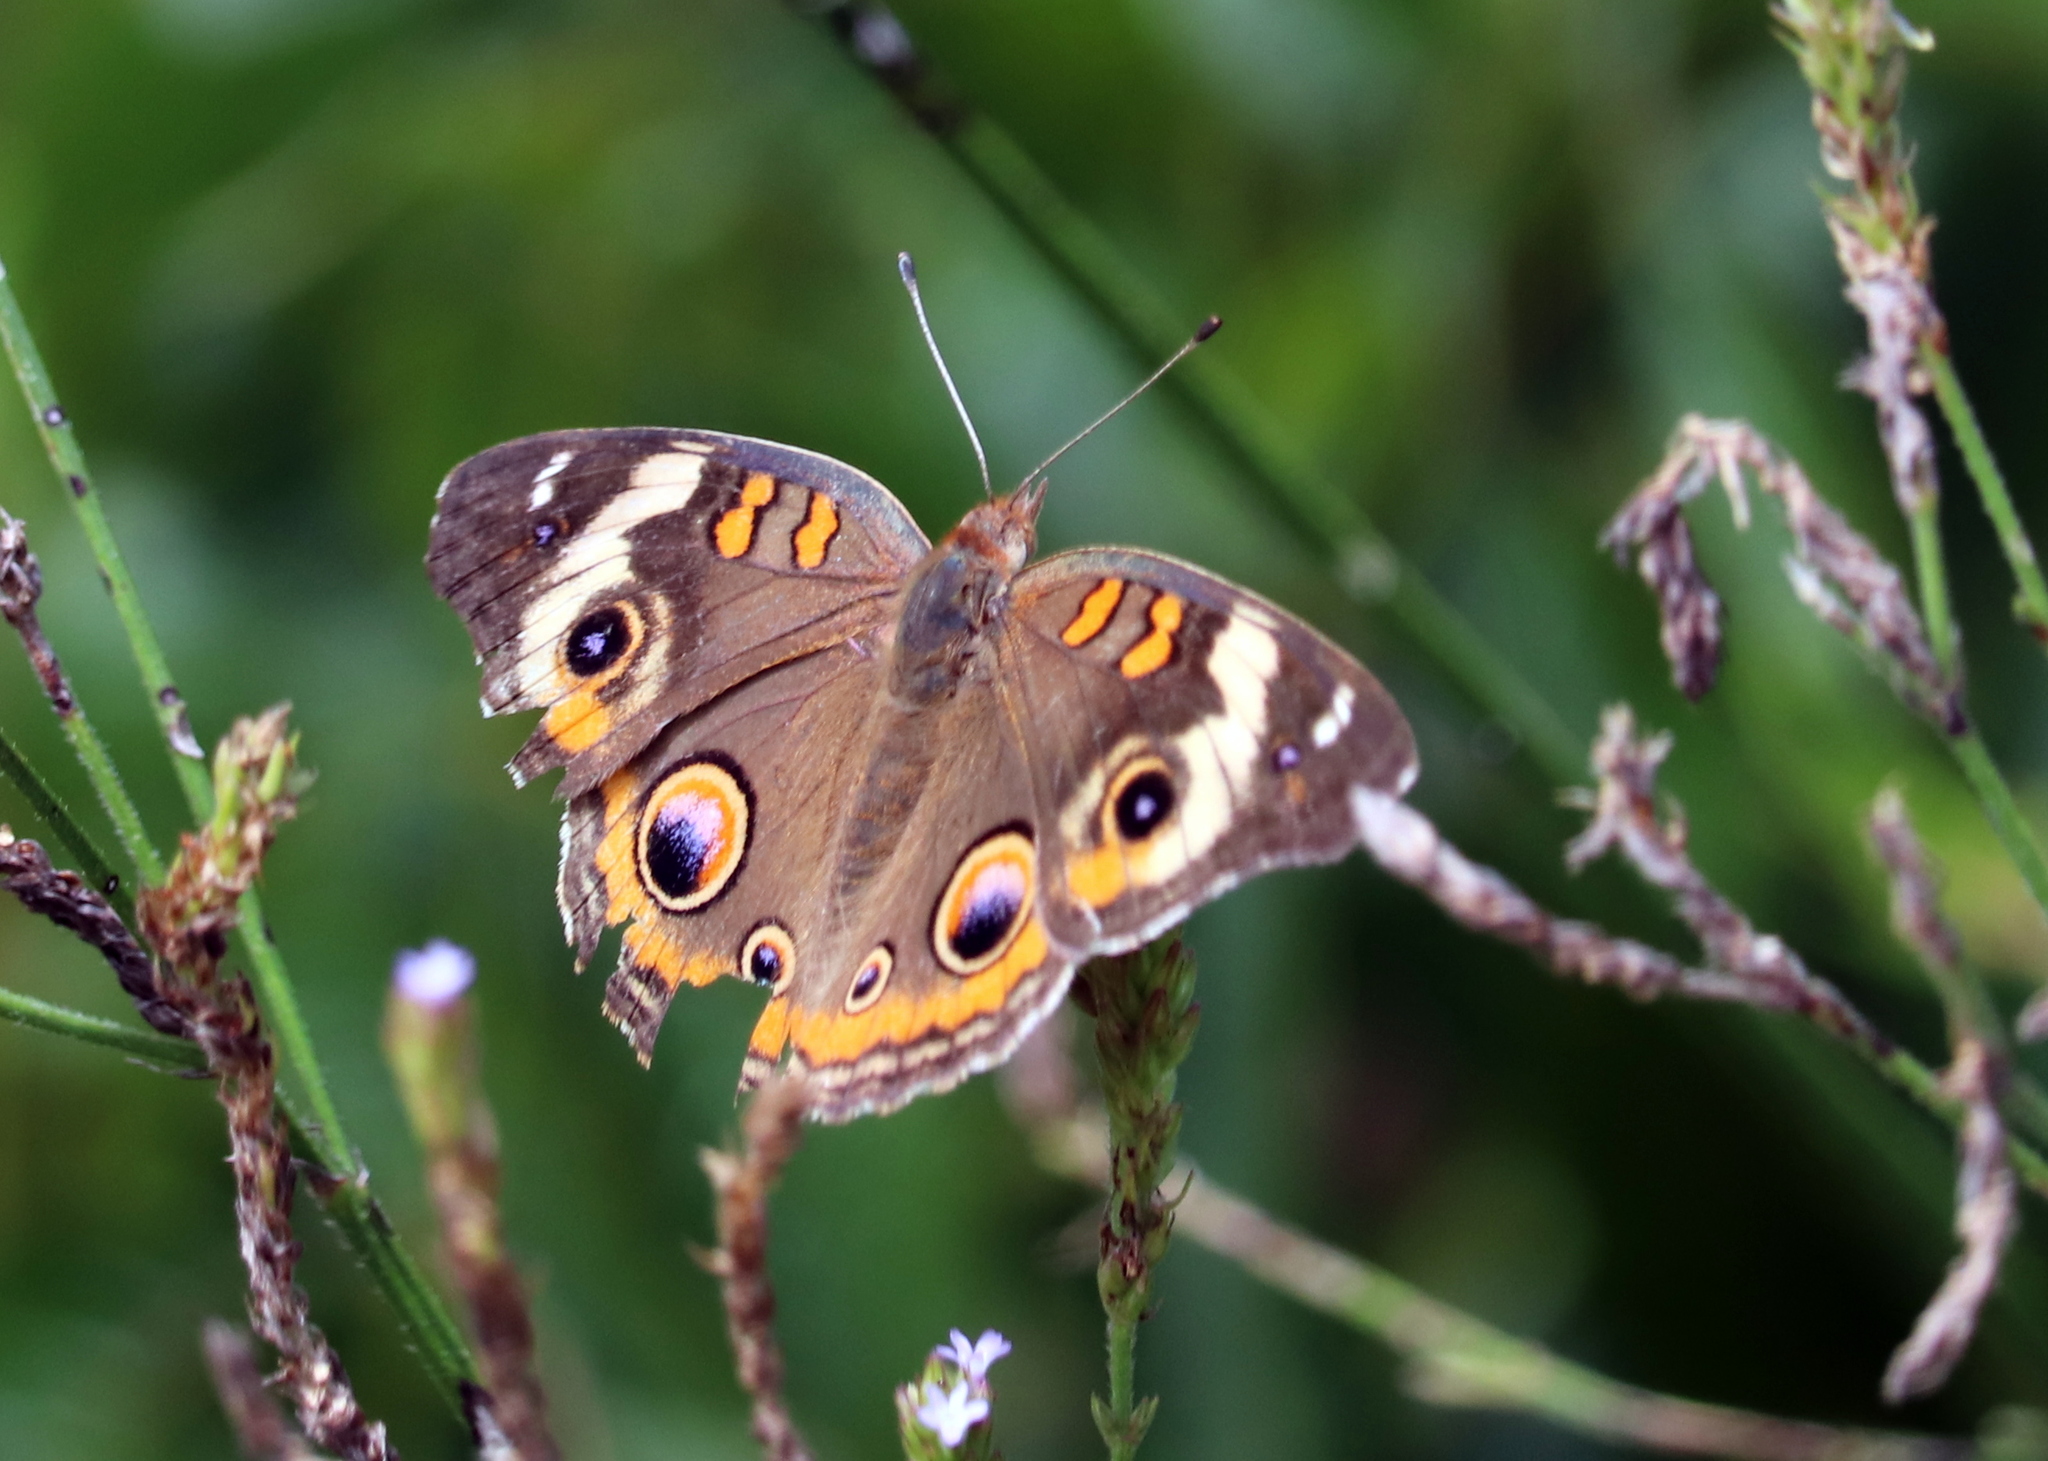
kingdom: Animalia
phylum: Arthropoda
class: Insecta
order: Lepidoptera
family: Nymphalidae
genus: Junonia
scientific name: Junonia coenia
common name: Common buckeye
